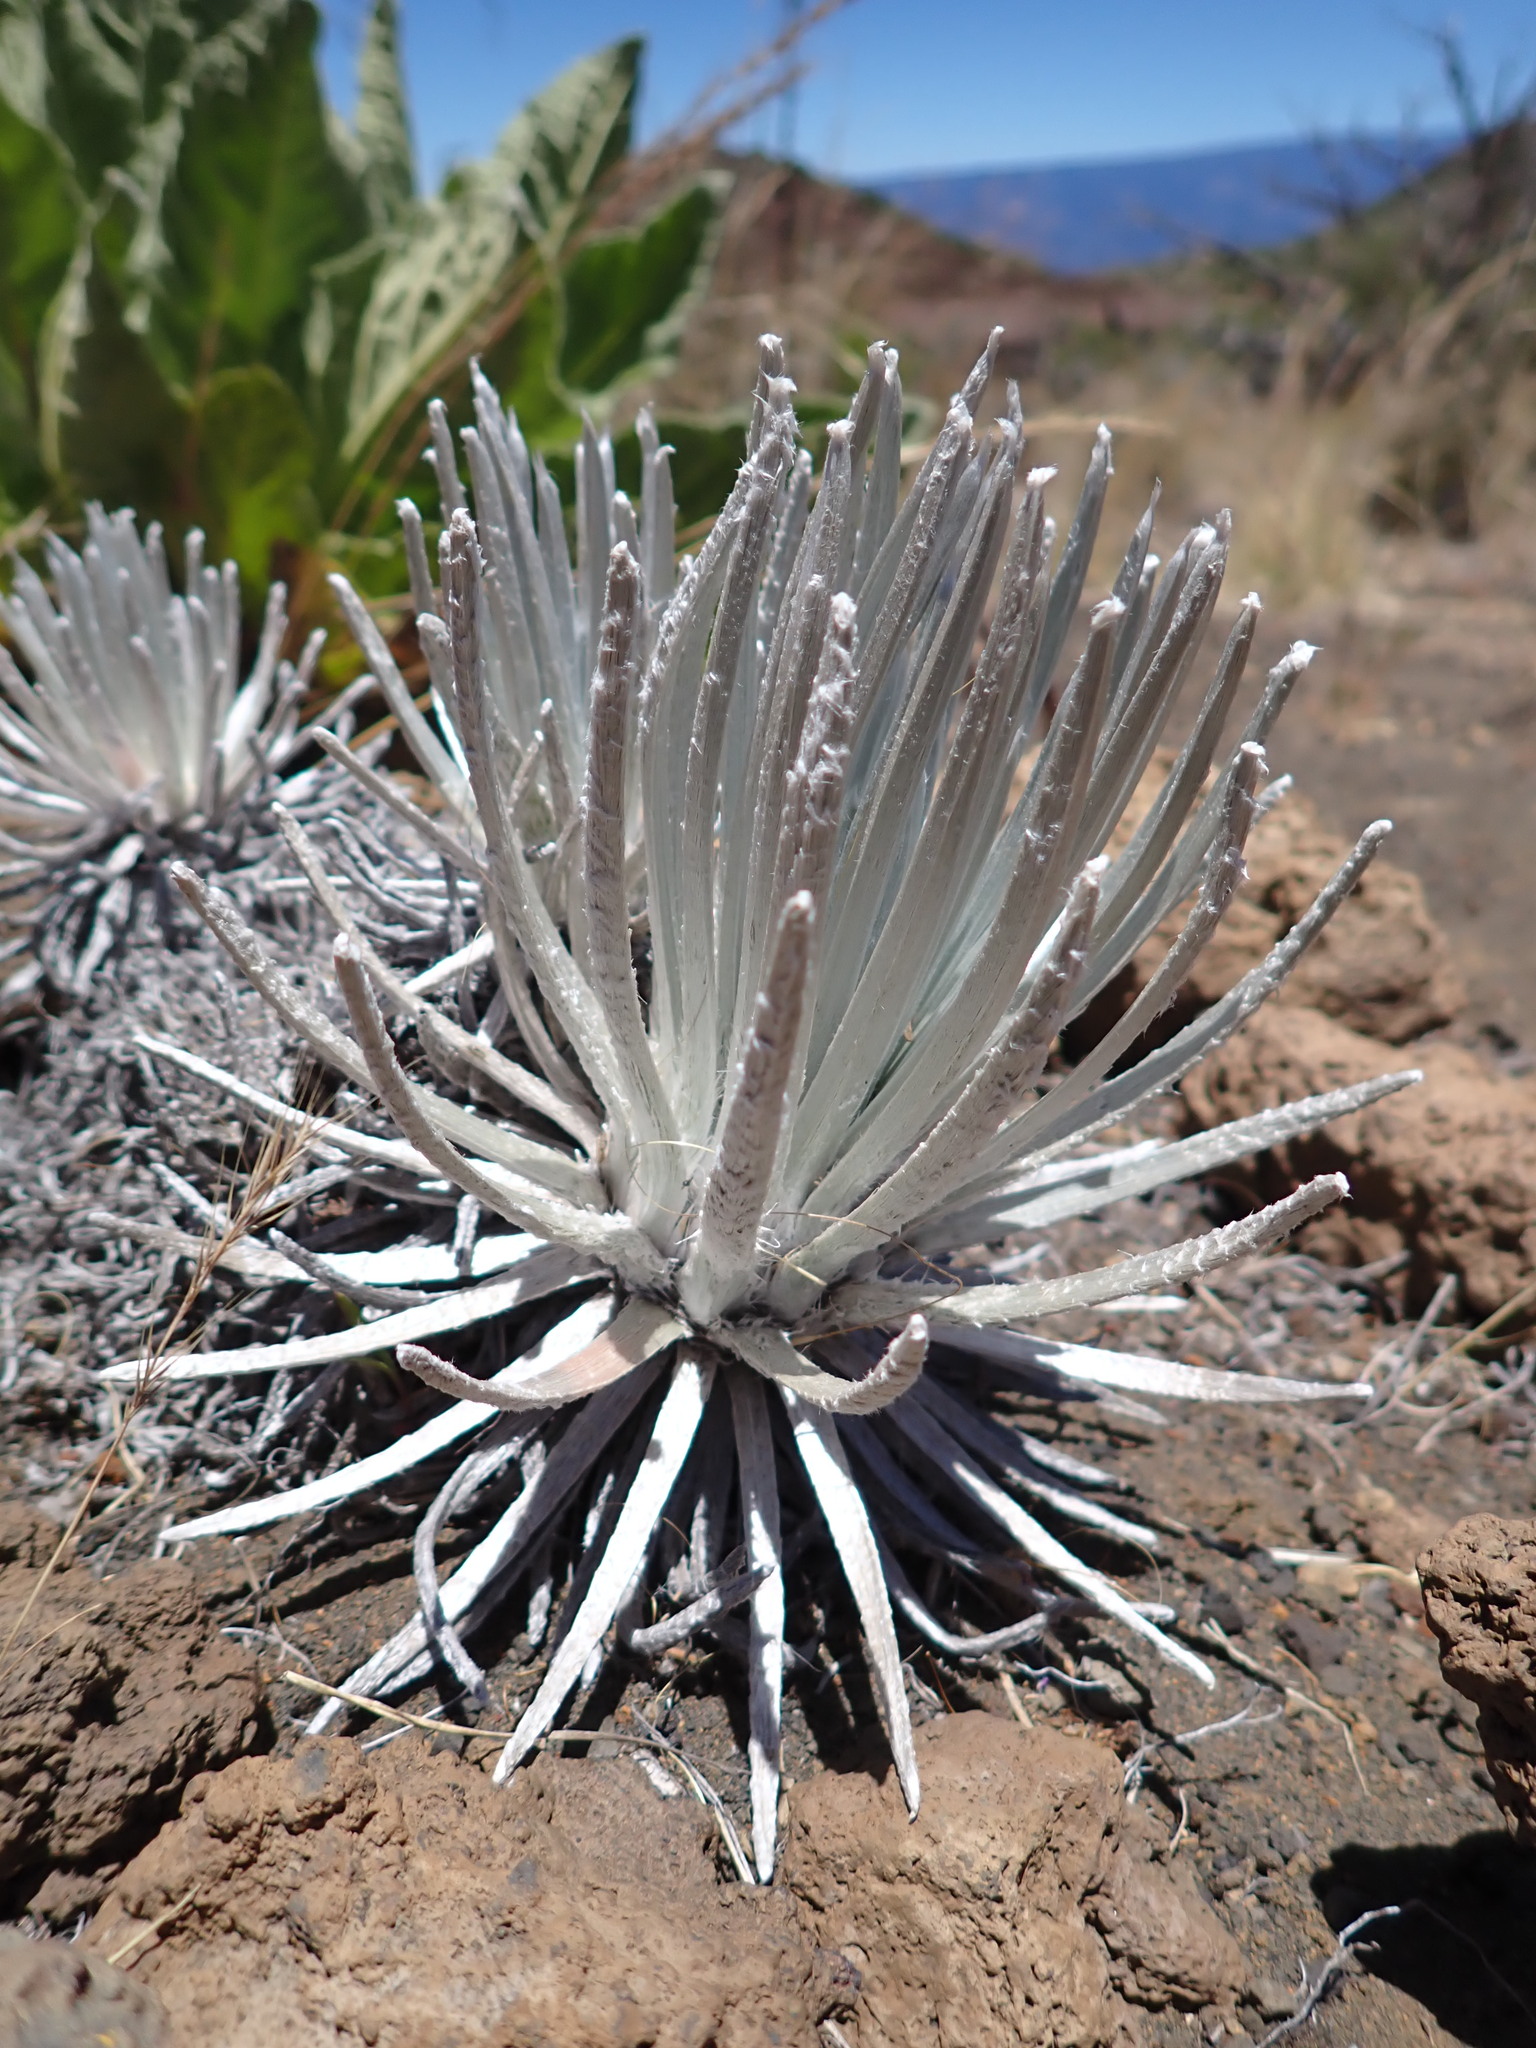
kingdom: Plantae
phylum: Tracheophyta
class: Magnoliopsida
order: Asterales
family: Asteraceae
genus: Argyroxiphium
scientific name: Argyroxiphium sandwicense
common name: Silversword
